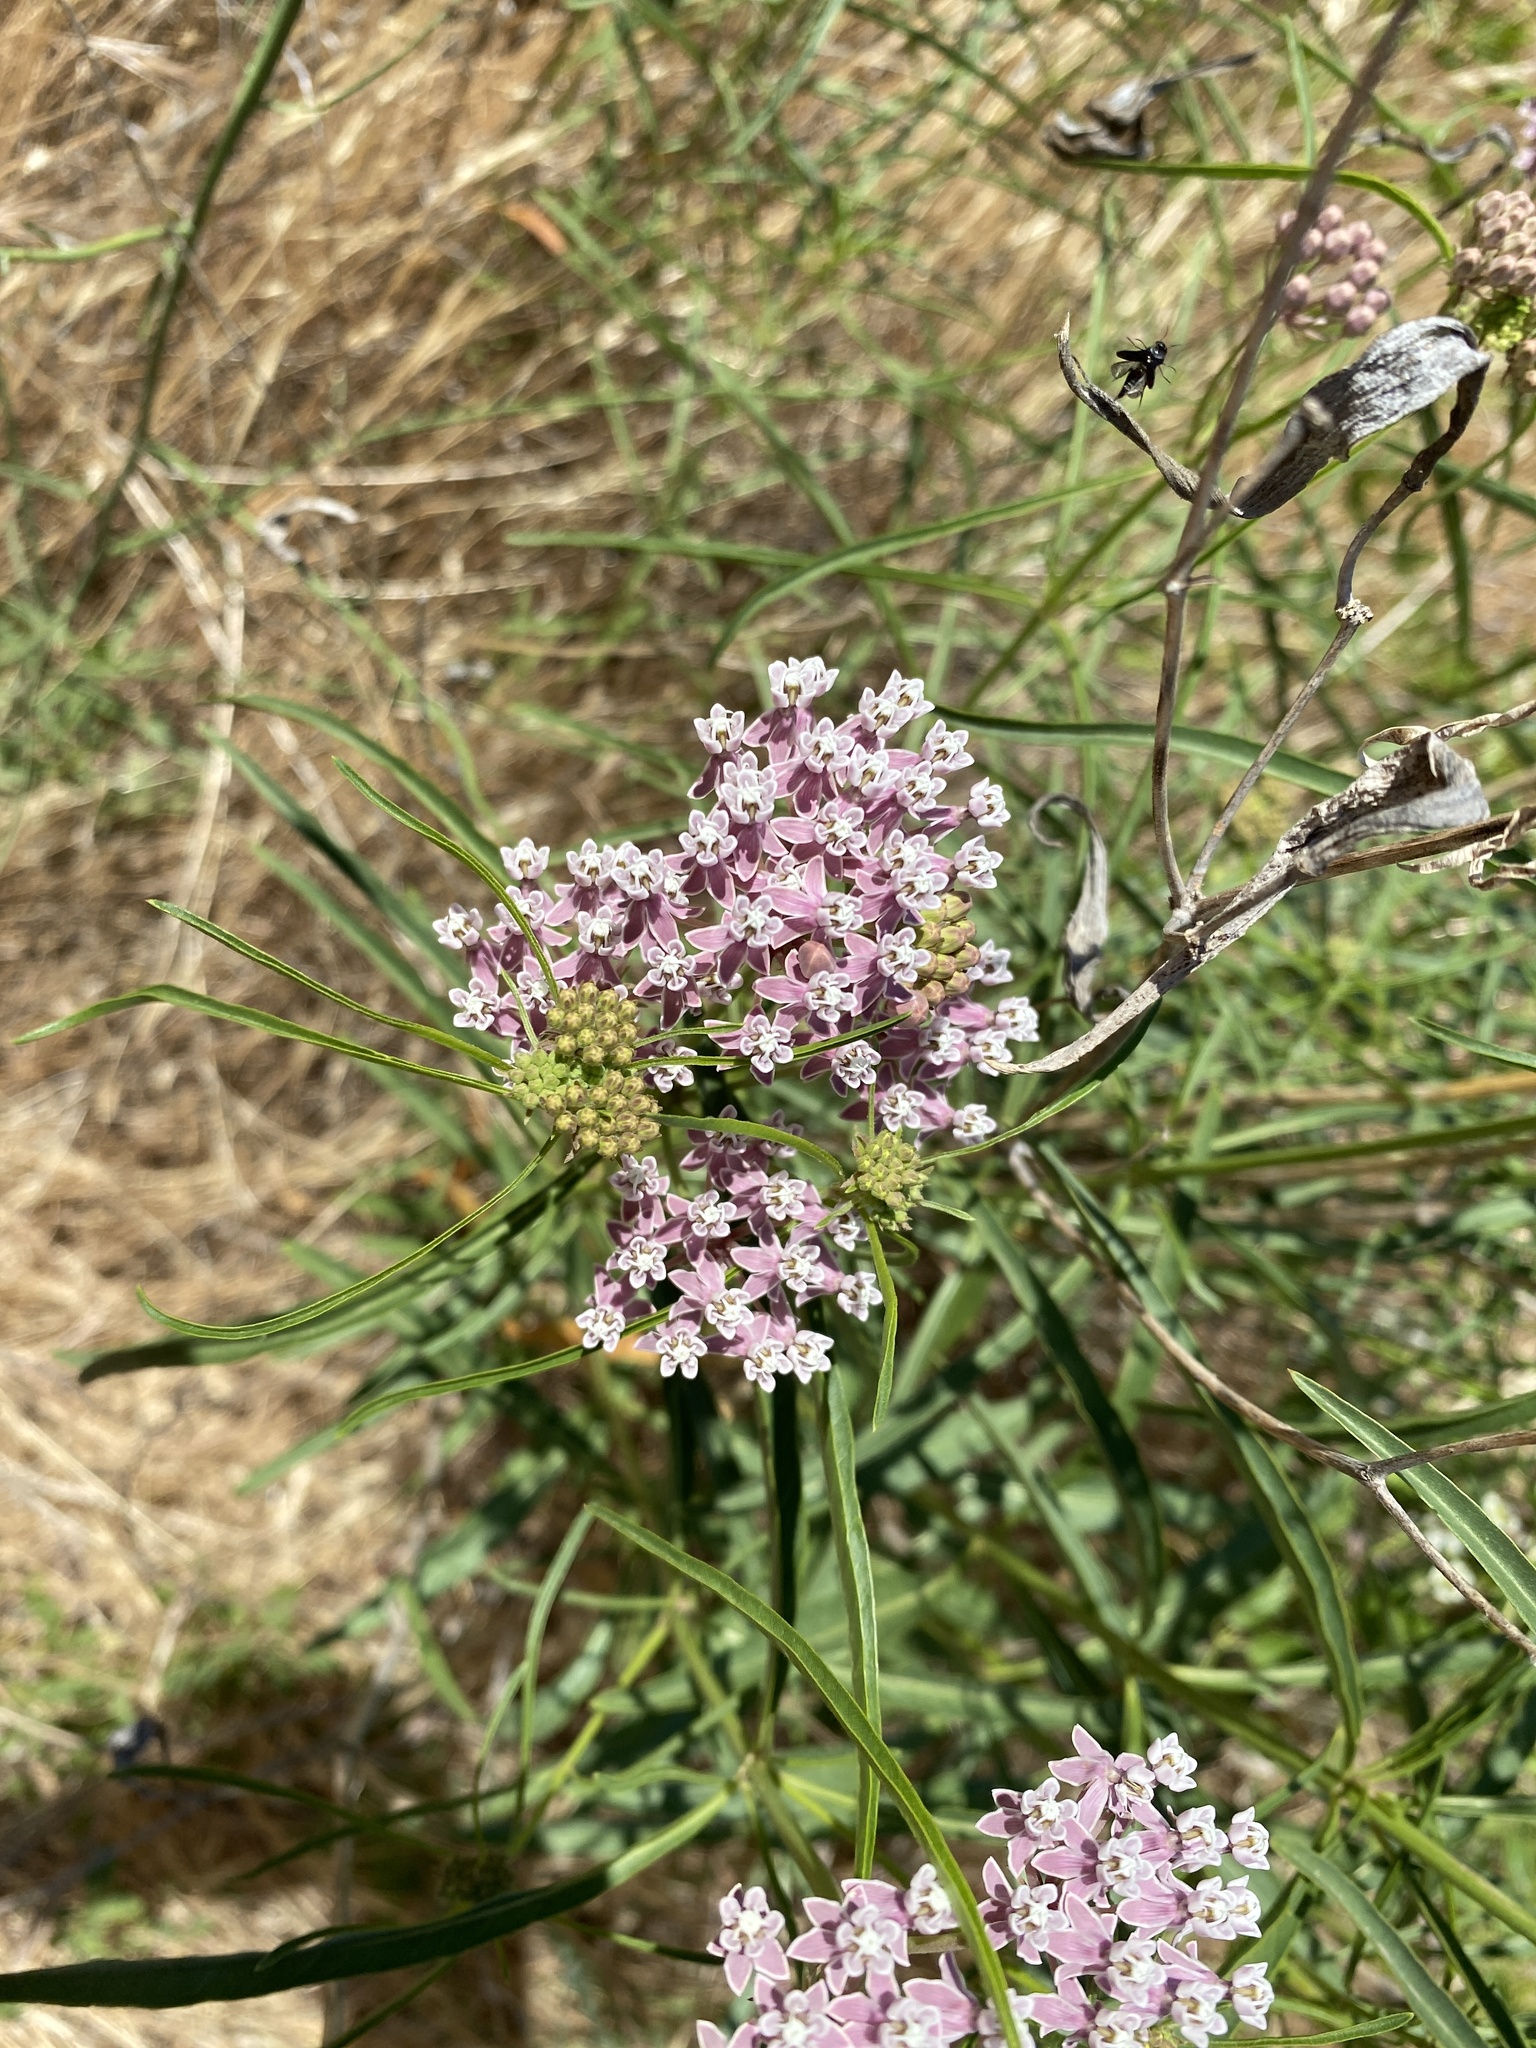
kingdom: Plantae
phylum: Tracheophyta
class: Magnoliopsida
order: Gentianales
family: Apocynaceae
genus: Asclepias
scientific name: Asclepias fascicularis
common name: Mexican milkweed
